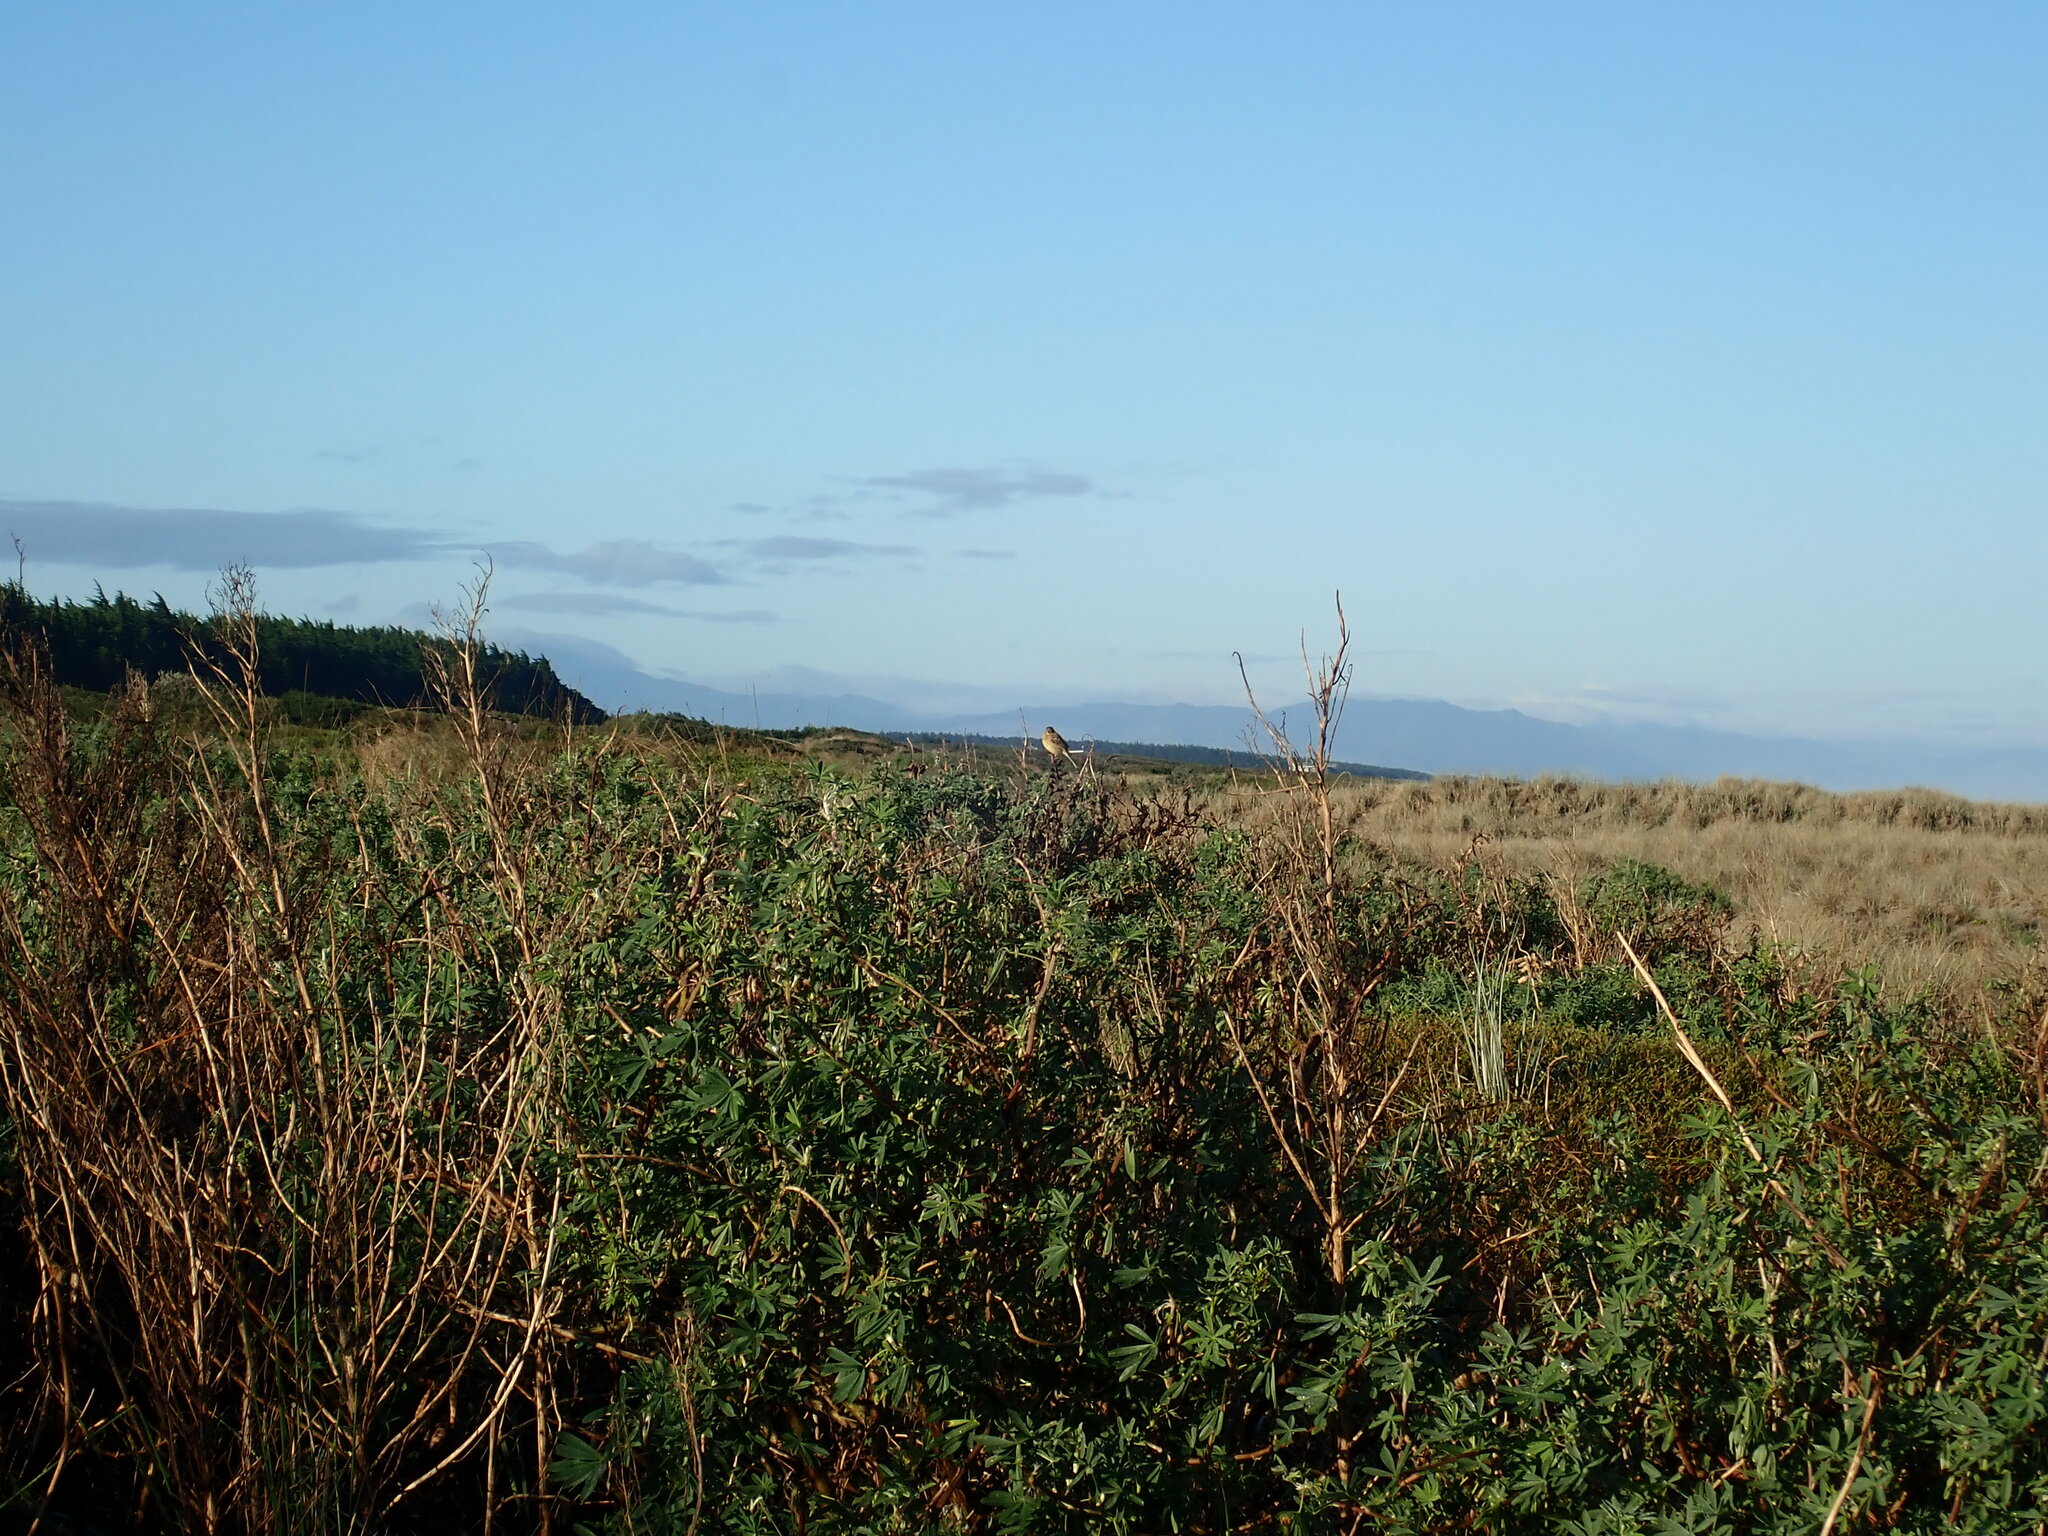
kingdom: Animalia
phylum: Chordata
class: Aves
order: Passeriformes
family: Emberizidae
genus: Emberiza
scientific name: Emberiza citrinella
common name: Yellowhammer
